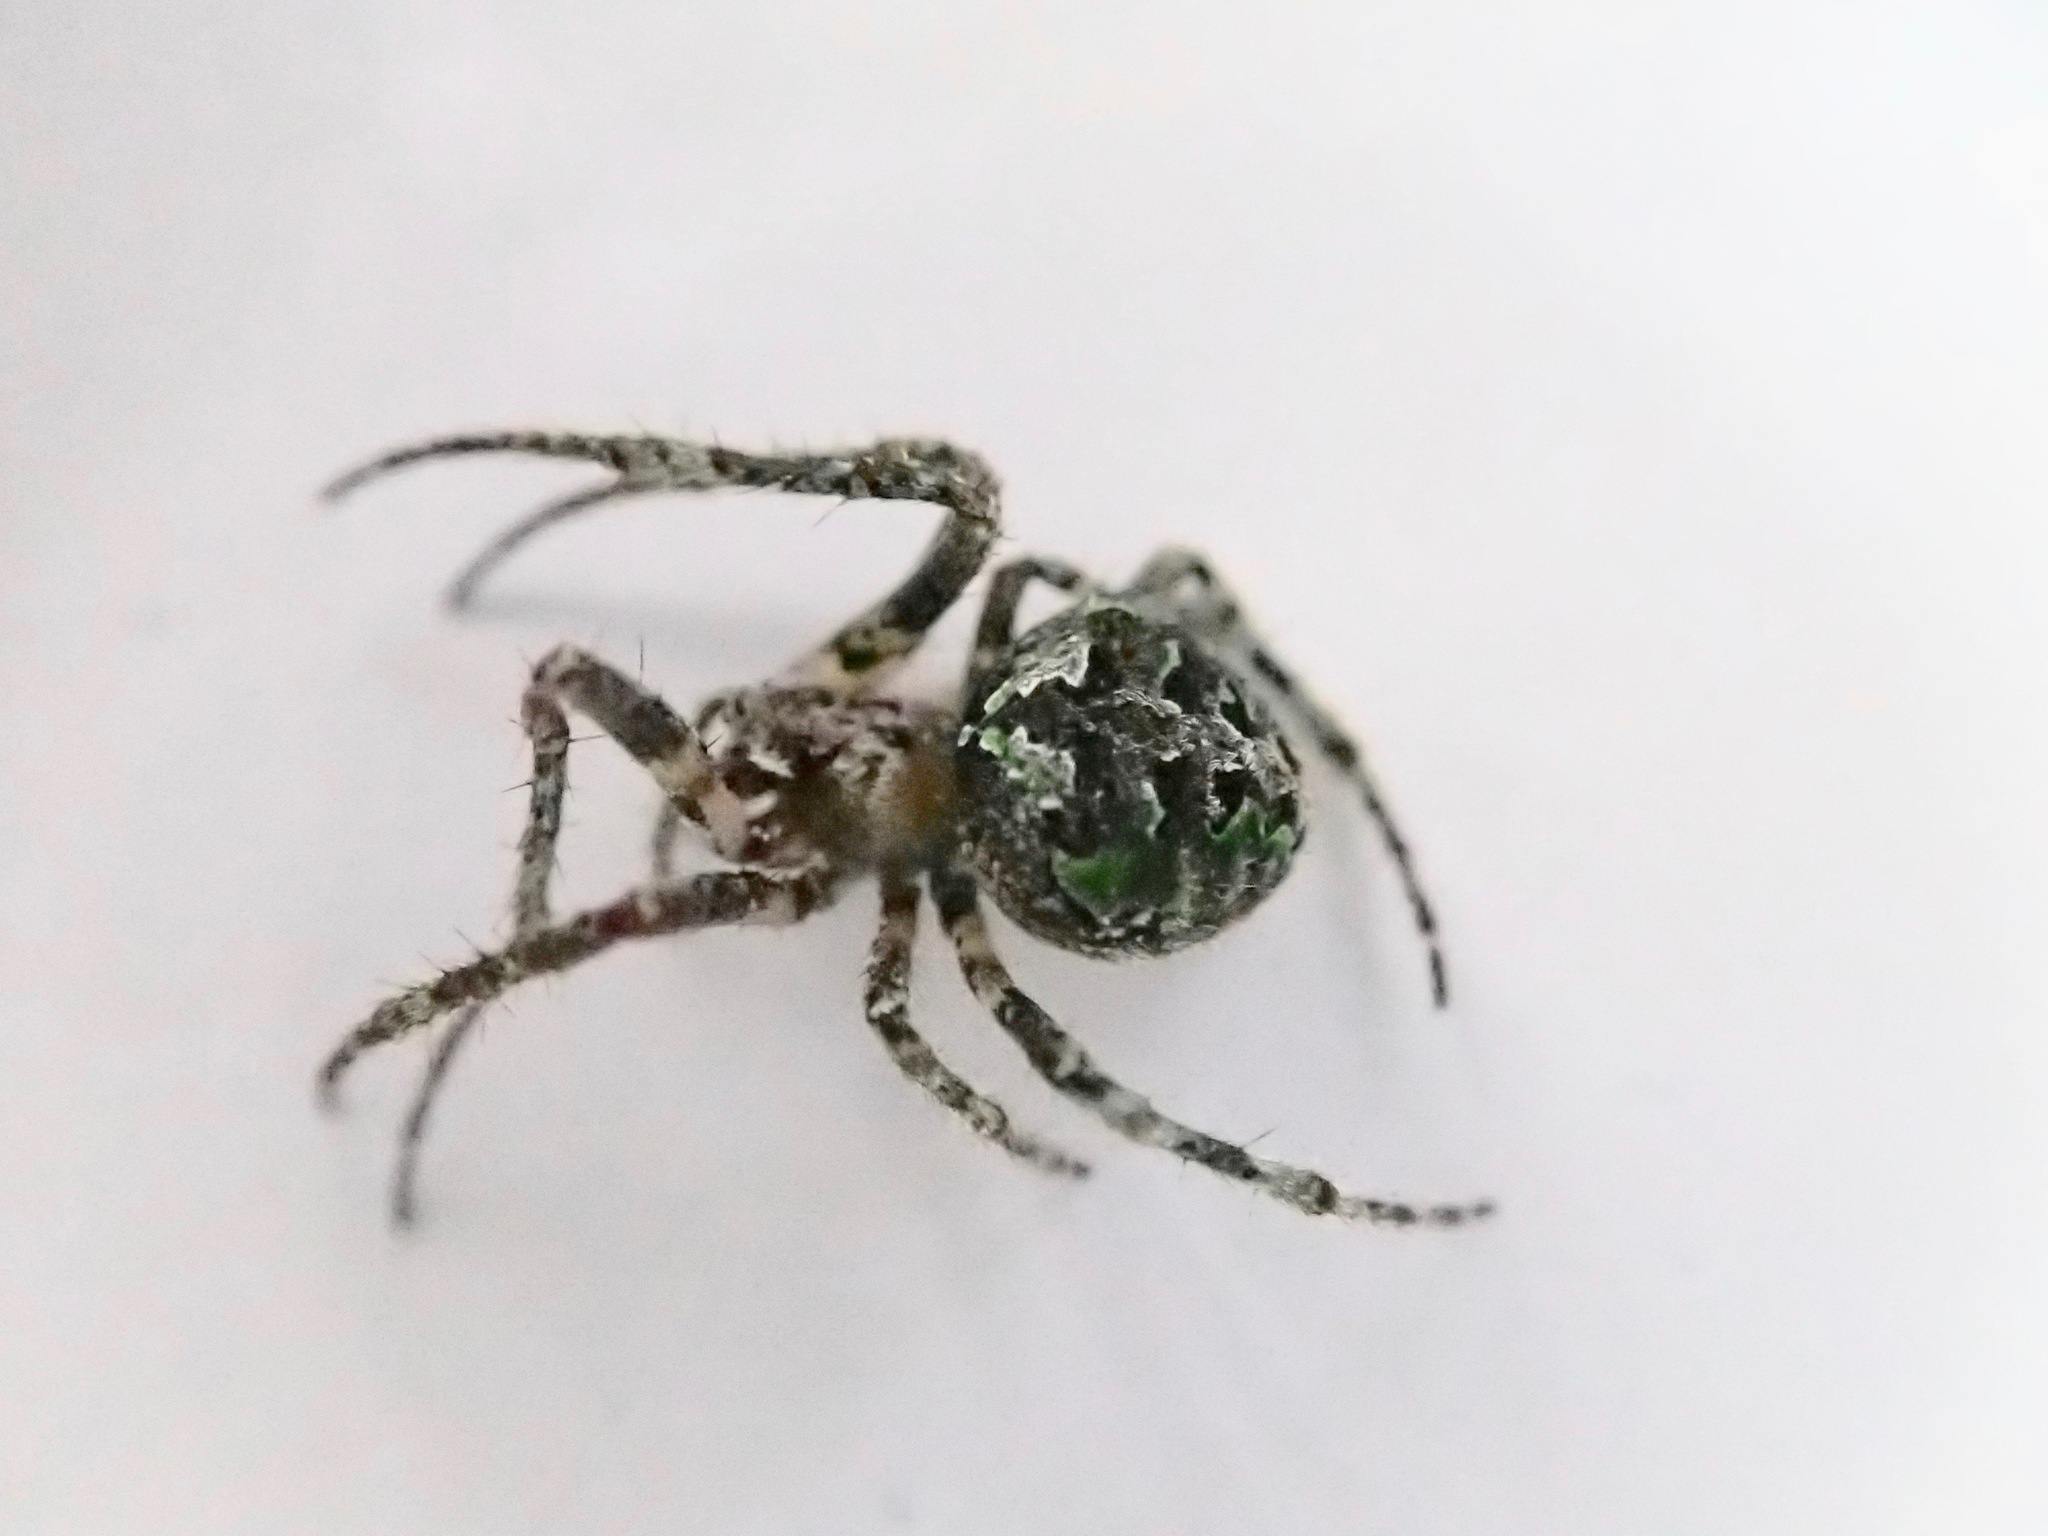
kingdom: Animalia
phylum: Arthropoda
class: Arachnida
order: Araneae
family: Araneidae
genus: Cryptaranea
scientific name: Cryptaranea
